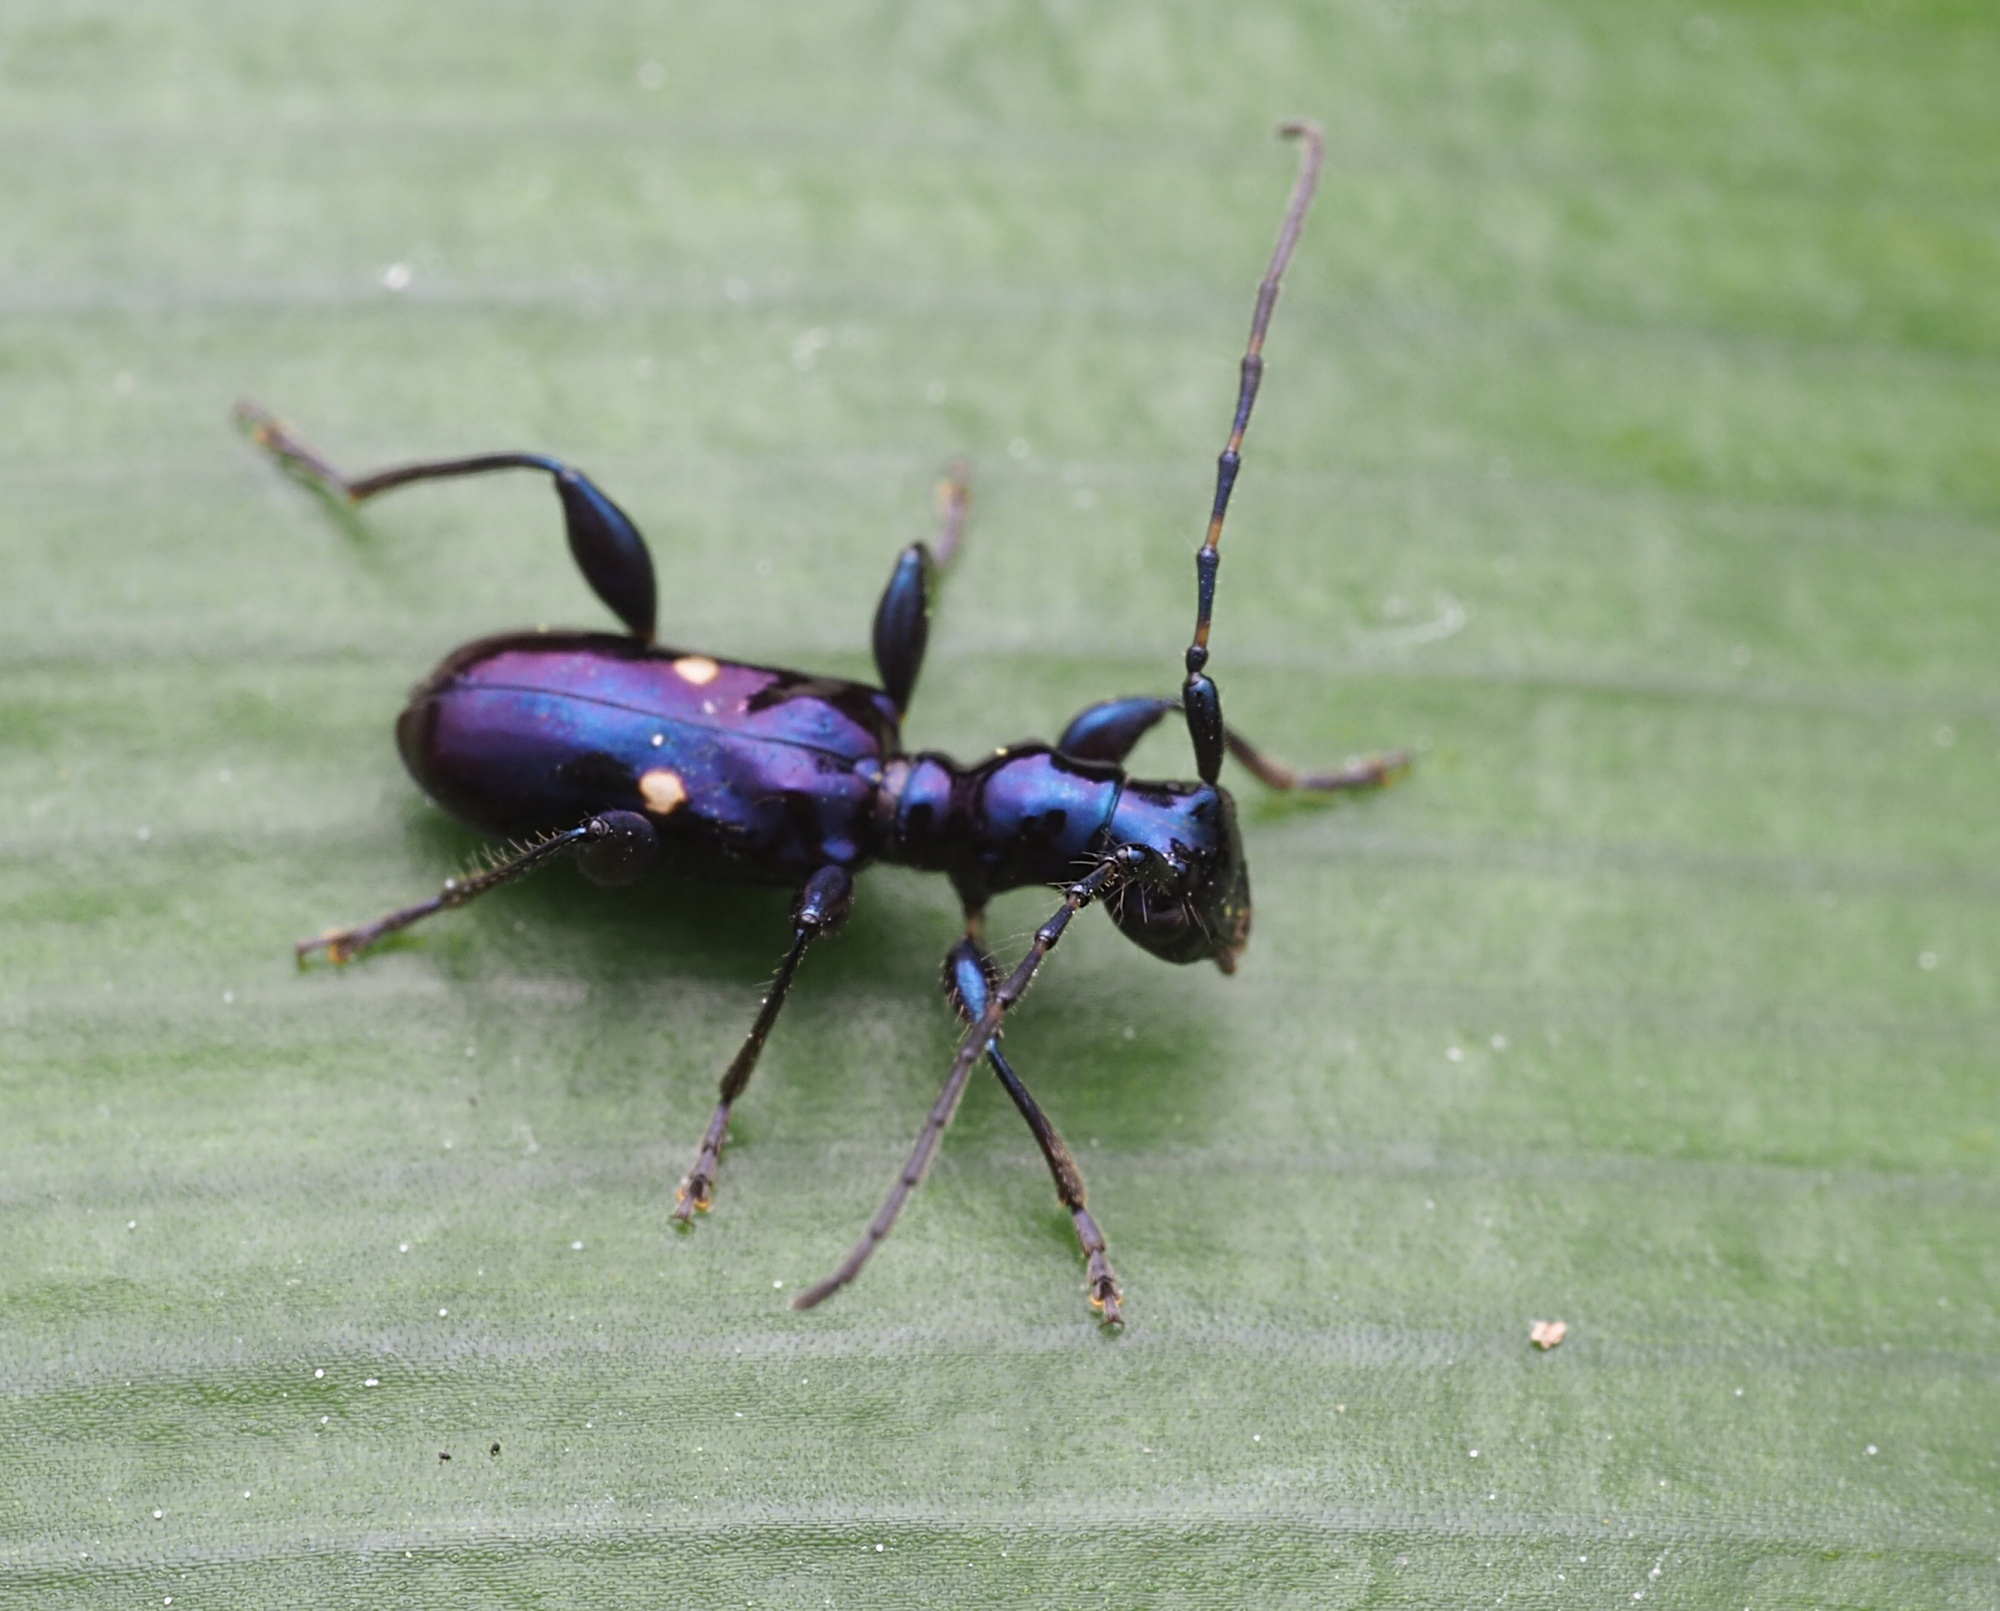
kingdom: Animalia
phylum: Arthropoda
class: Insecta
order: Coleoptera
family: Cerambycidae
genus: Zorion
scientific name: Zorion batesi
